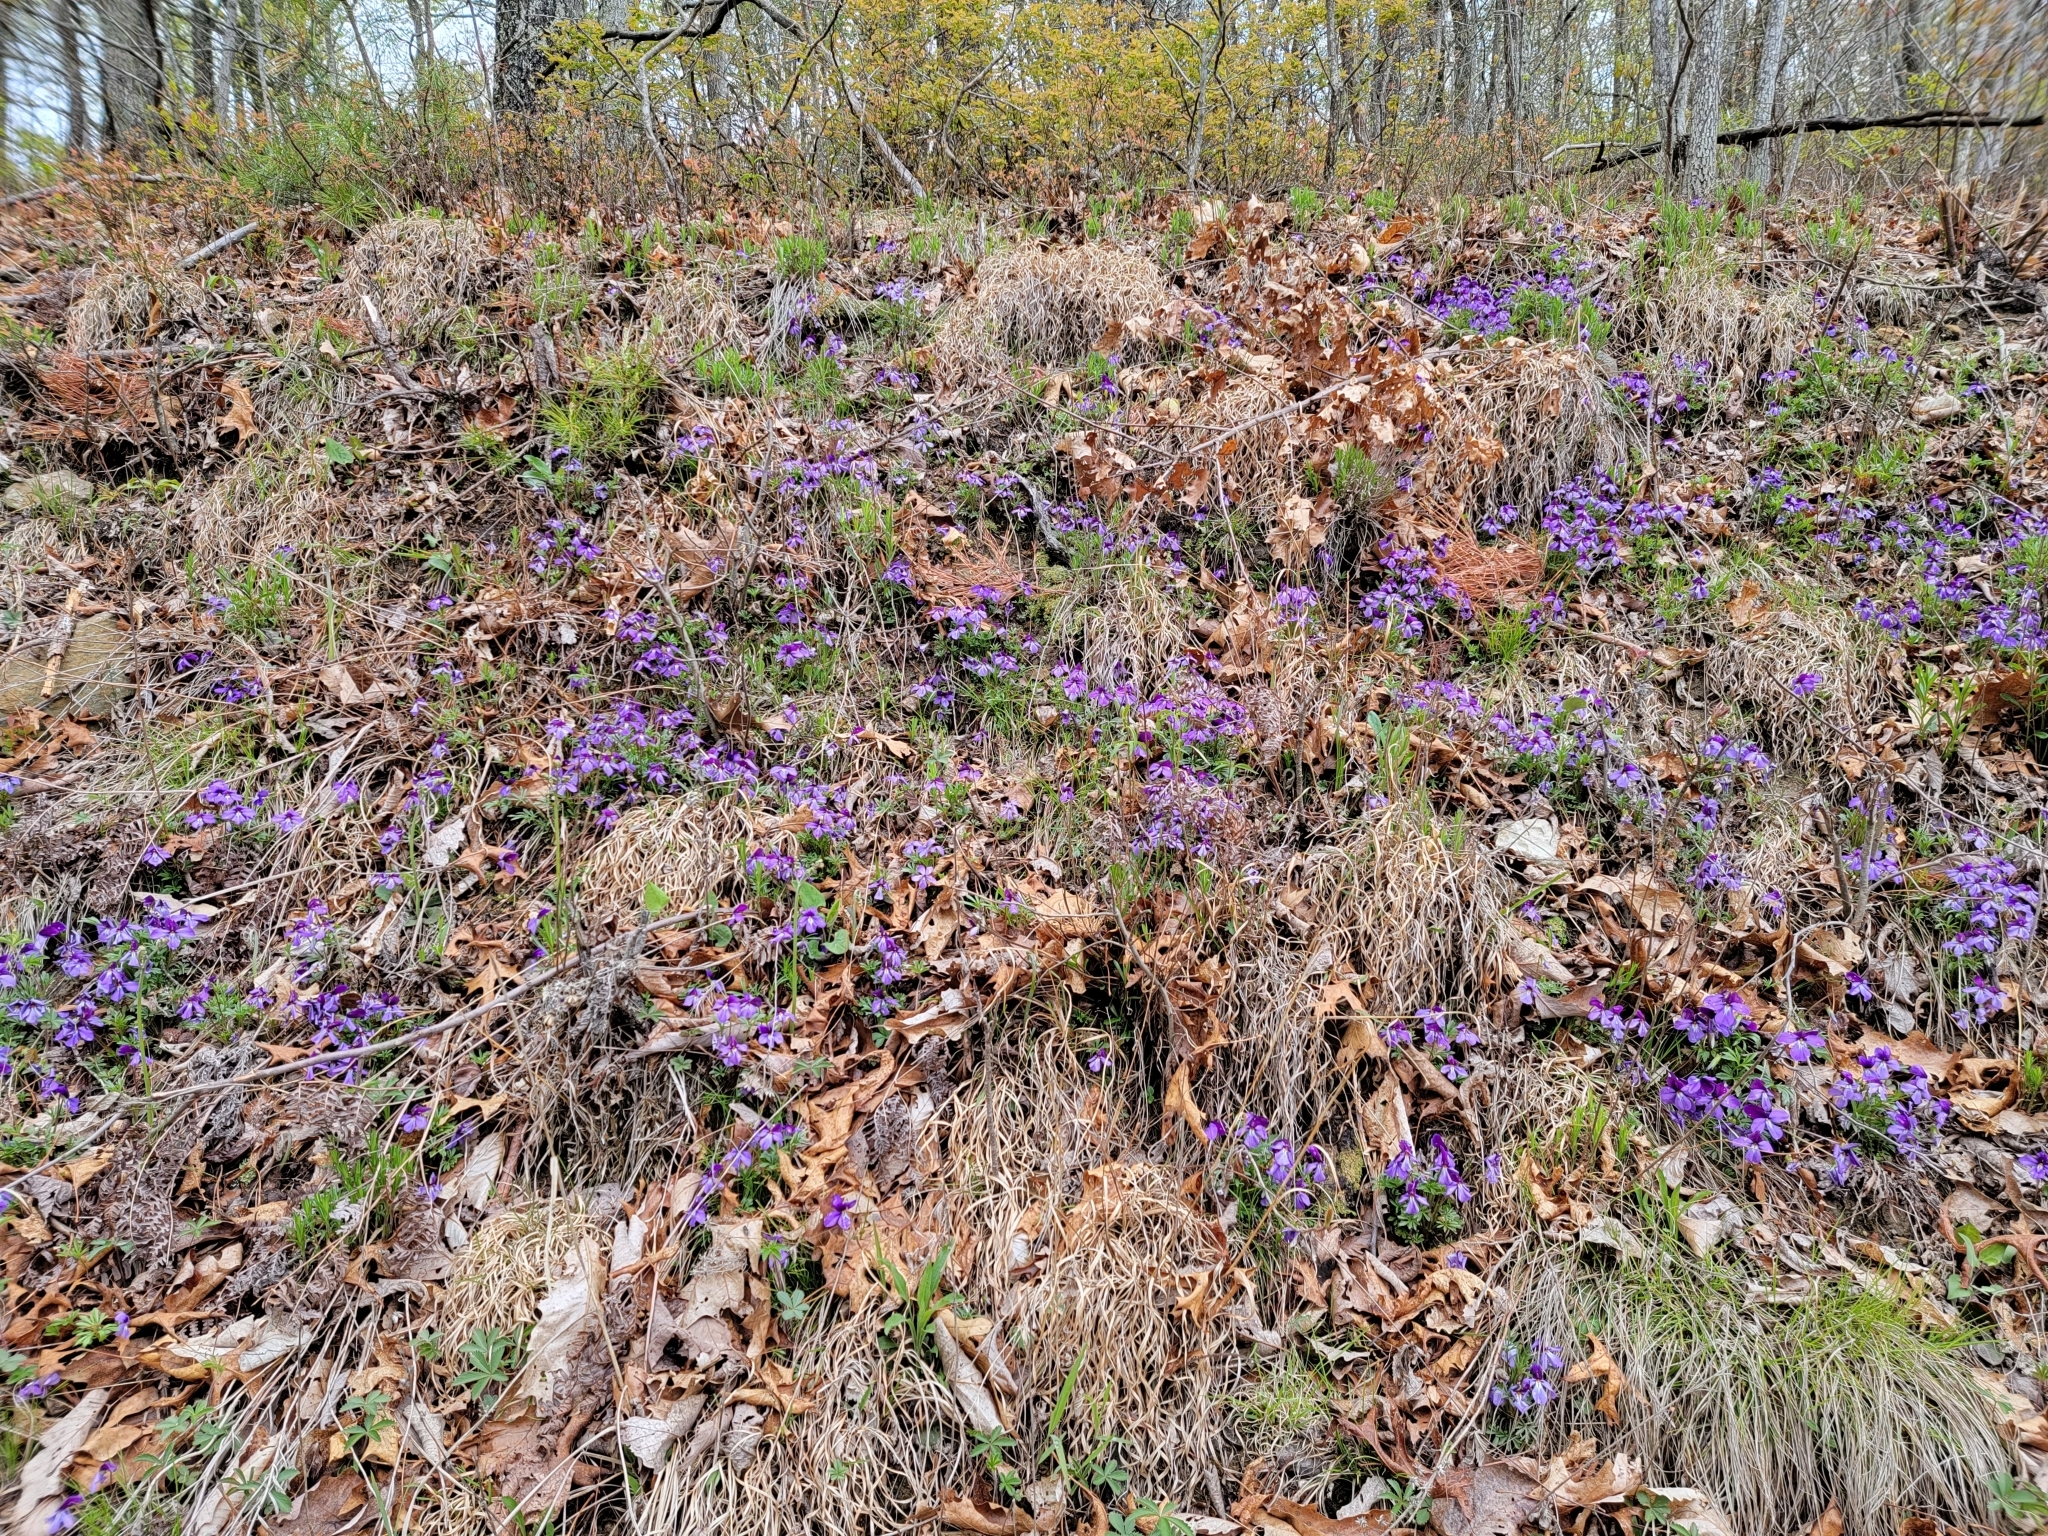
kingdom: Plantae
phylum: Tracheophyta
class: Magnoliopsida
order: Malpighiales
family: Violaceae
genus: Viola
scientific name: Viola pedata
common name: Pansy violet
